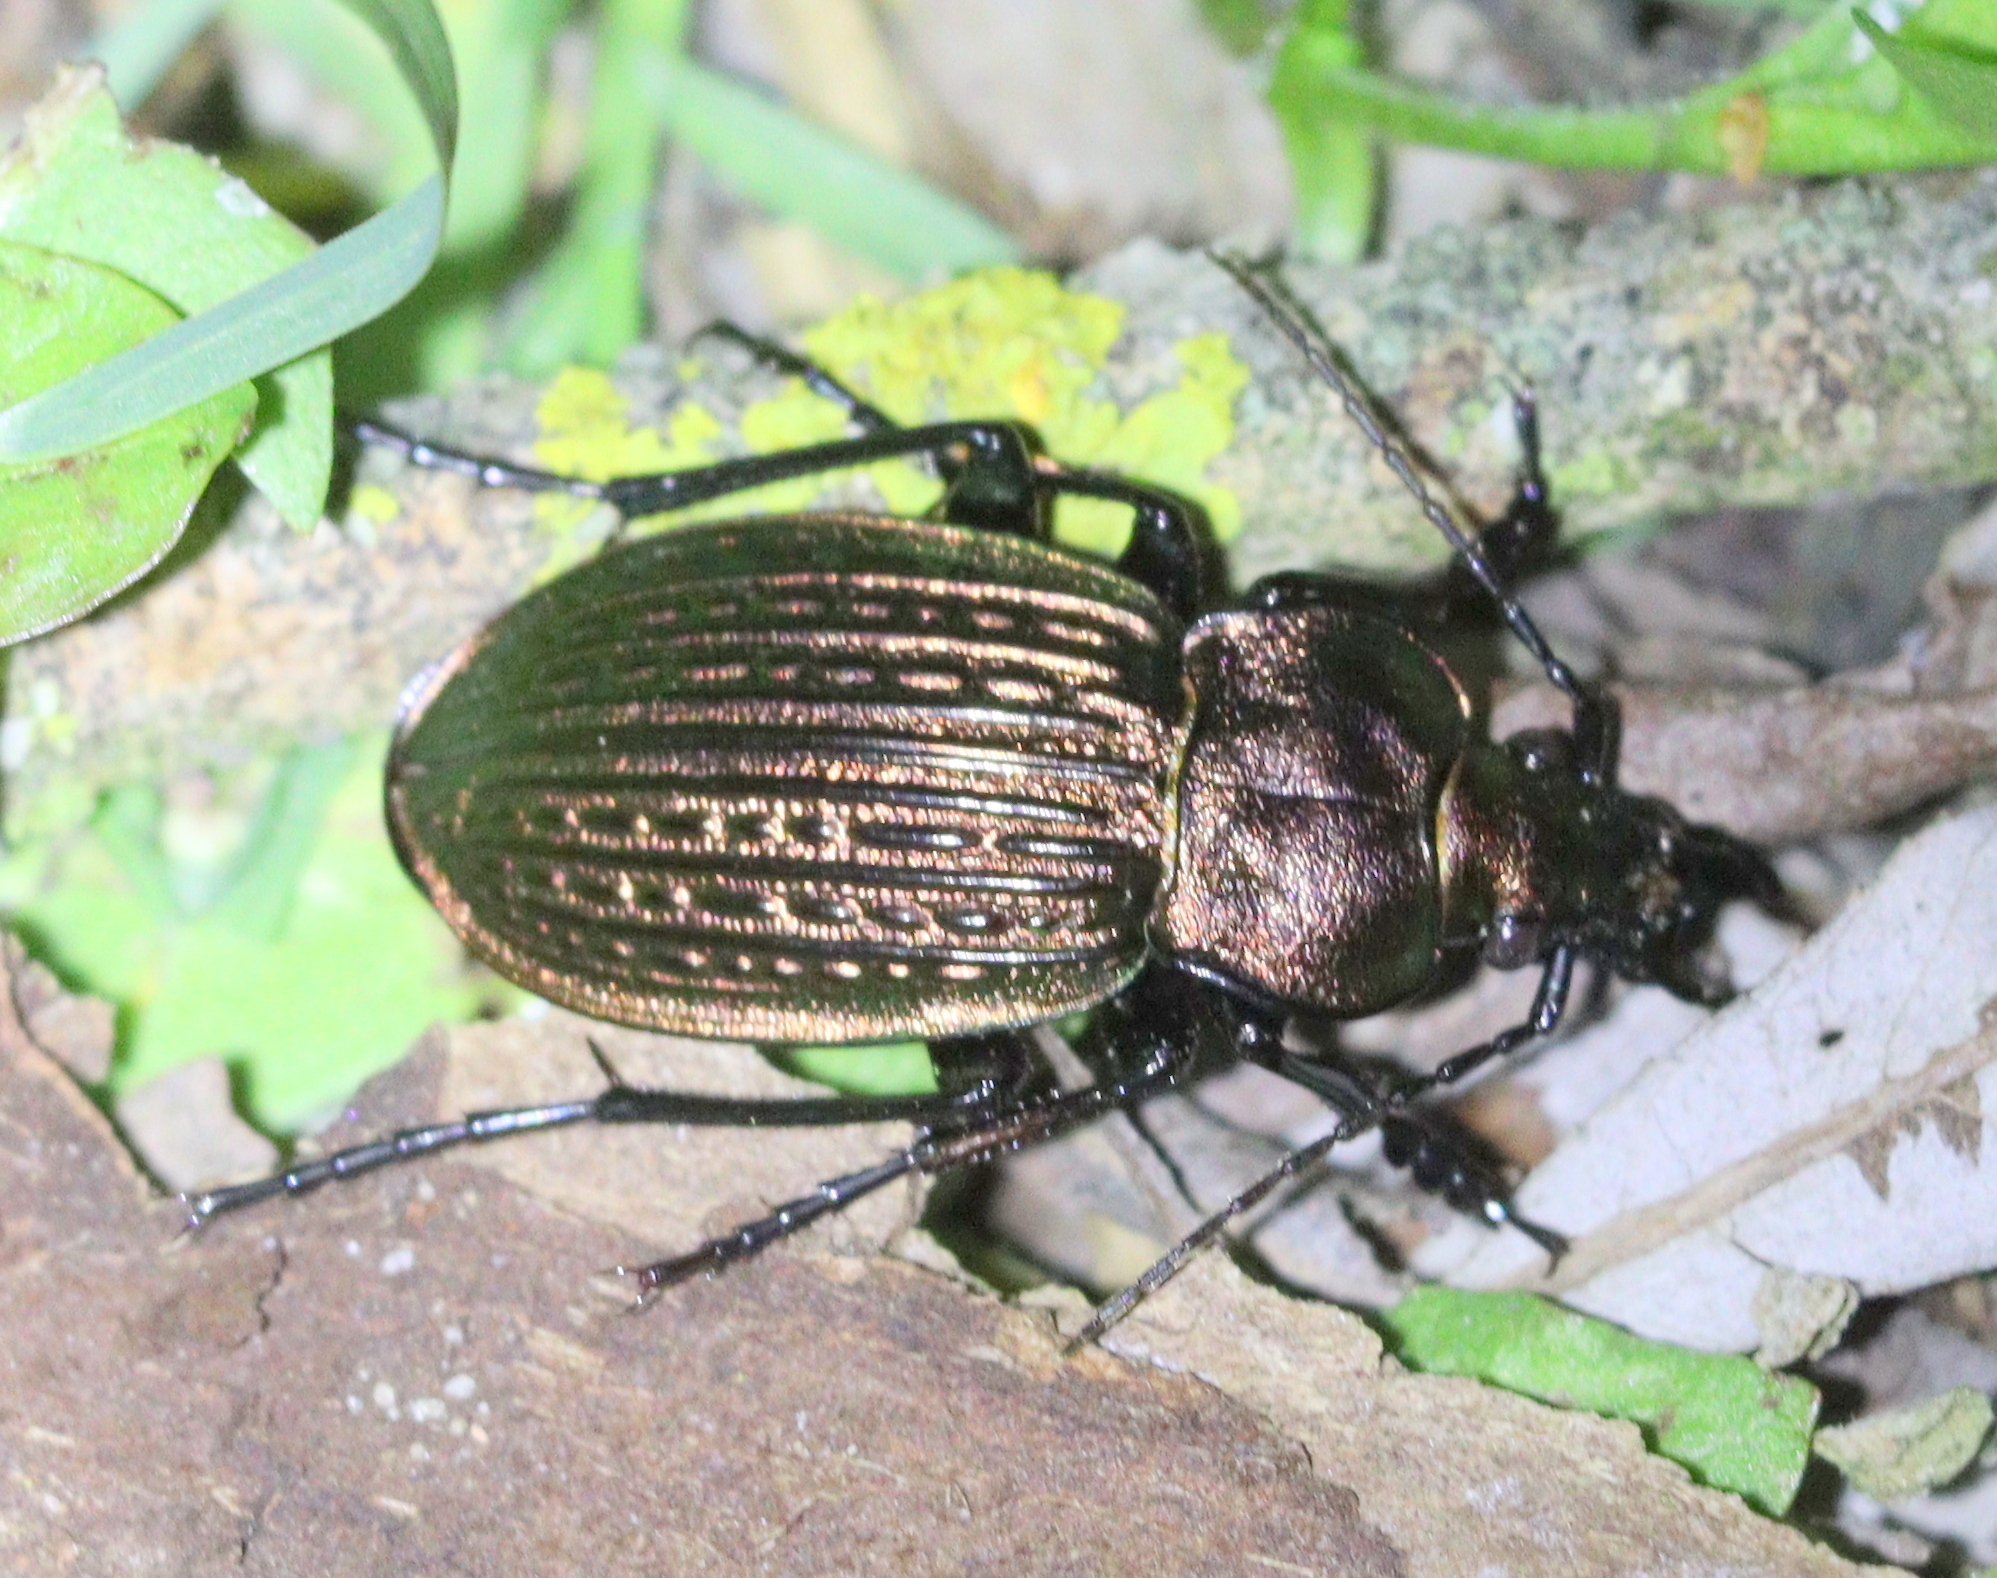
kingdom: Animalia
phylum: Arthropoda
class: Insecta
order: Coleoptera
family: Carabidae
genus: Carabus
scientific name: Carabus ulrichii
